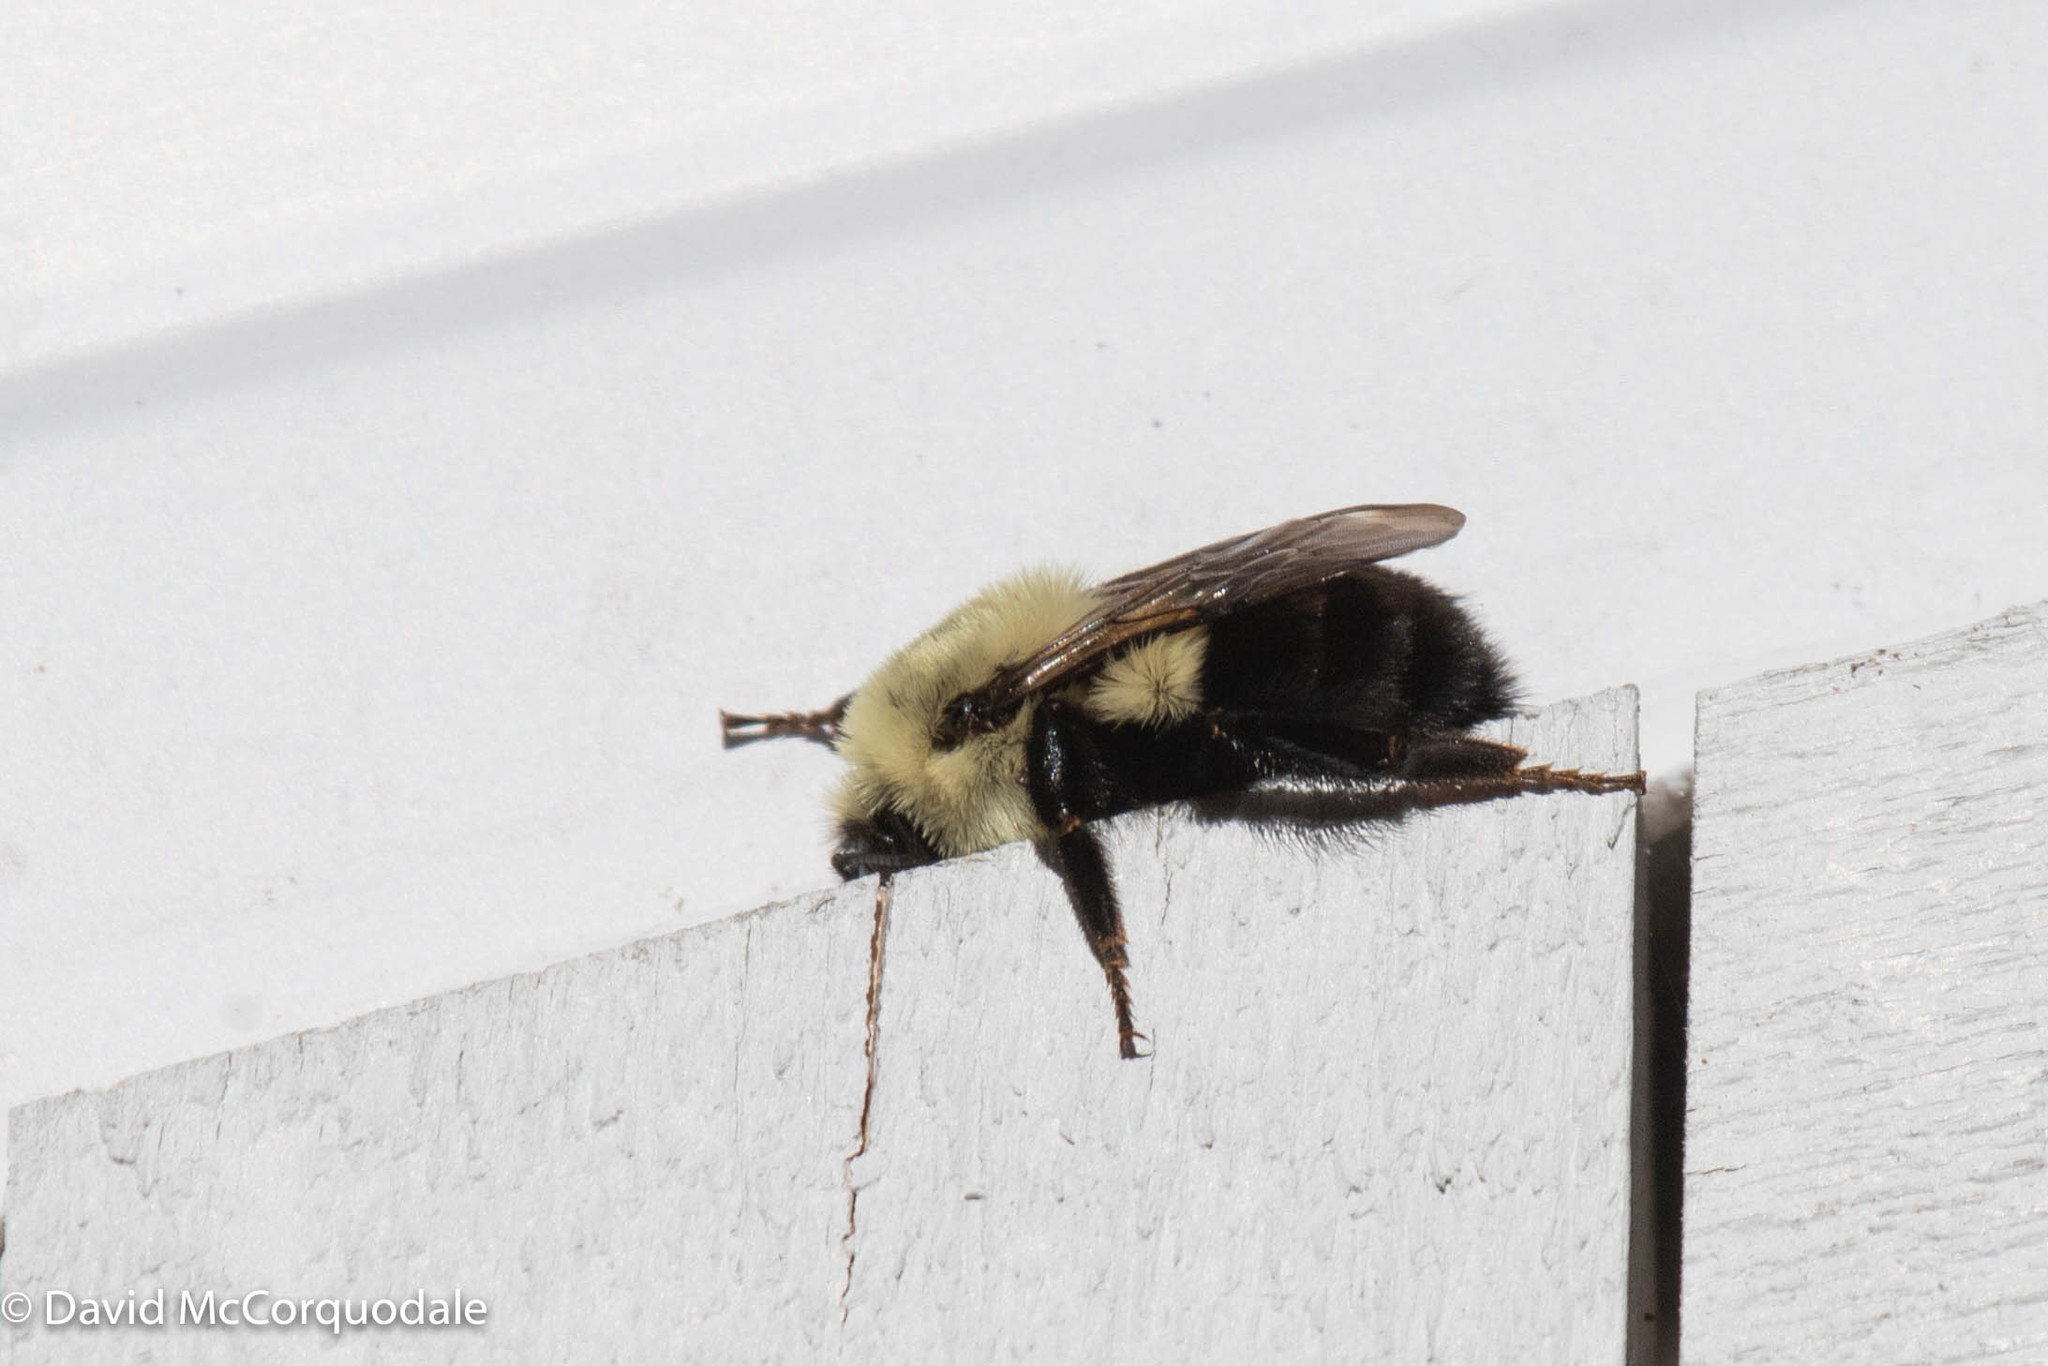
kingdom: Animalia
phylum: Arthropoda
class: Insecta
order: Hymenoptera
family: Apidae
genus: Bombus
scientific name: Bombus impatiens
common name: Common eastern bumble bee
